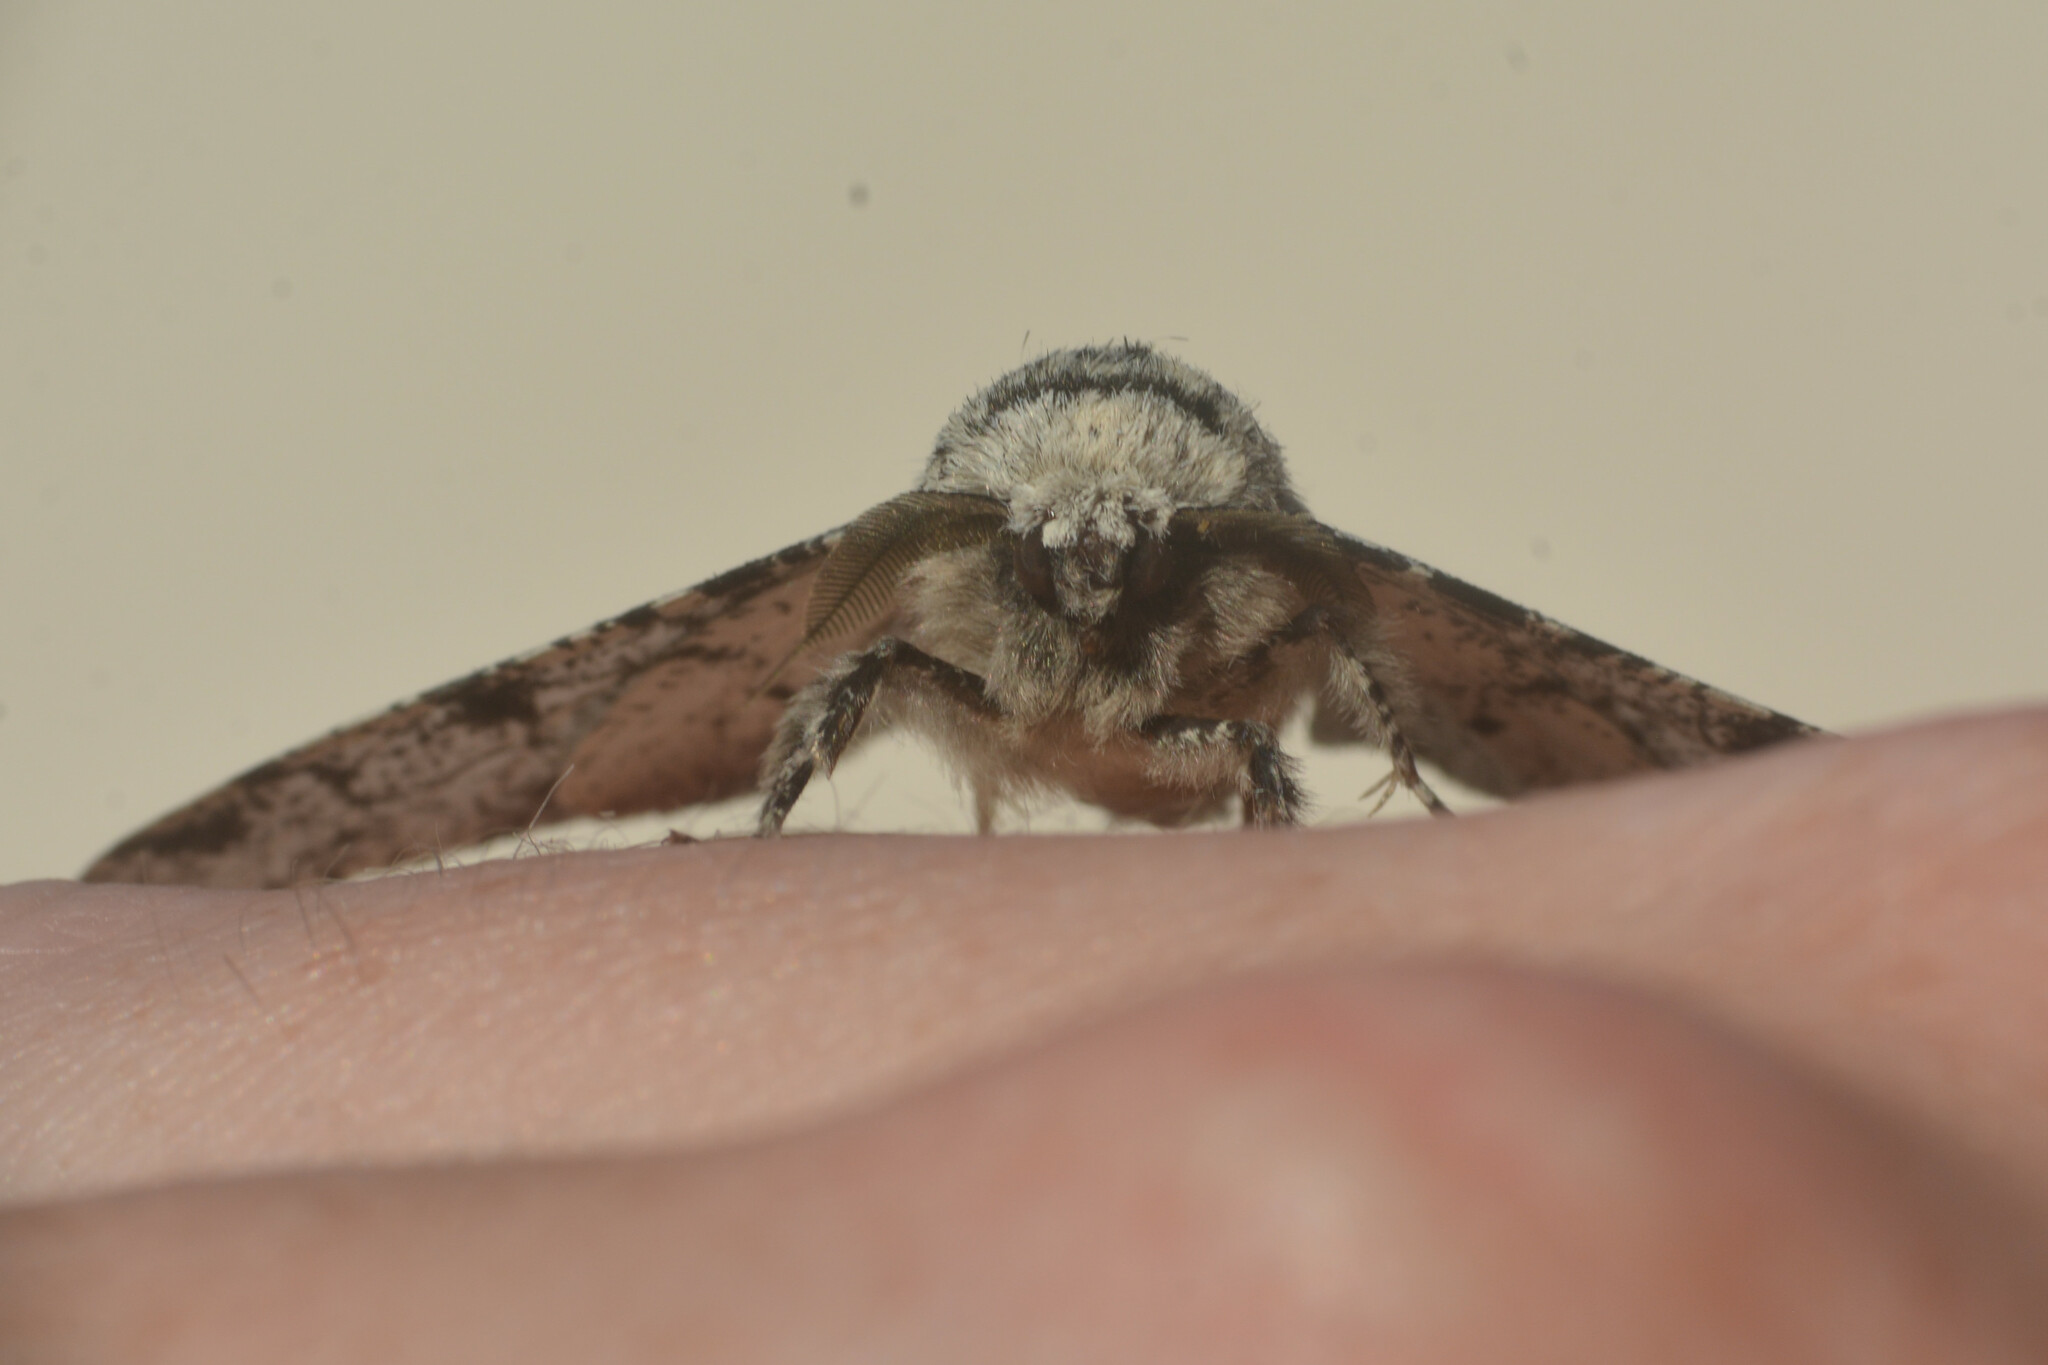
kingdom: Animalia
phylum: Arthropoda
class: Insecta
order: Lepidoptera
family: Geometridae
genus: Biston
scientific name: Biston betularia
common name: Peppered moth
